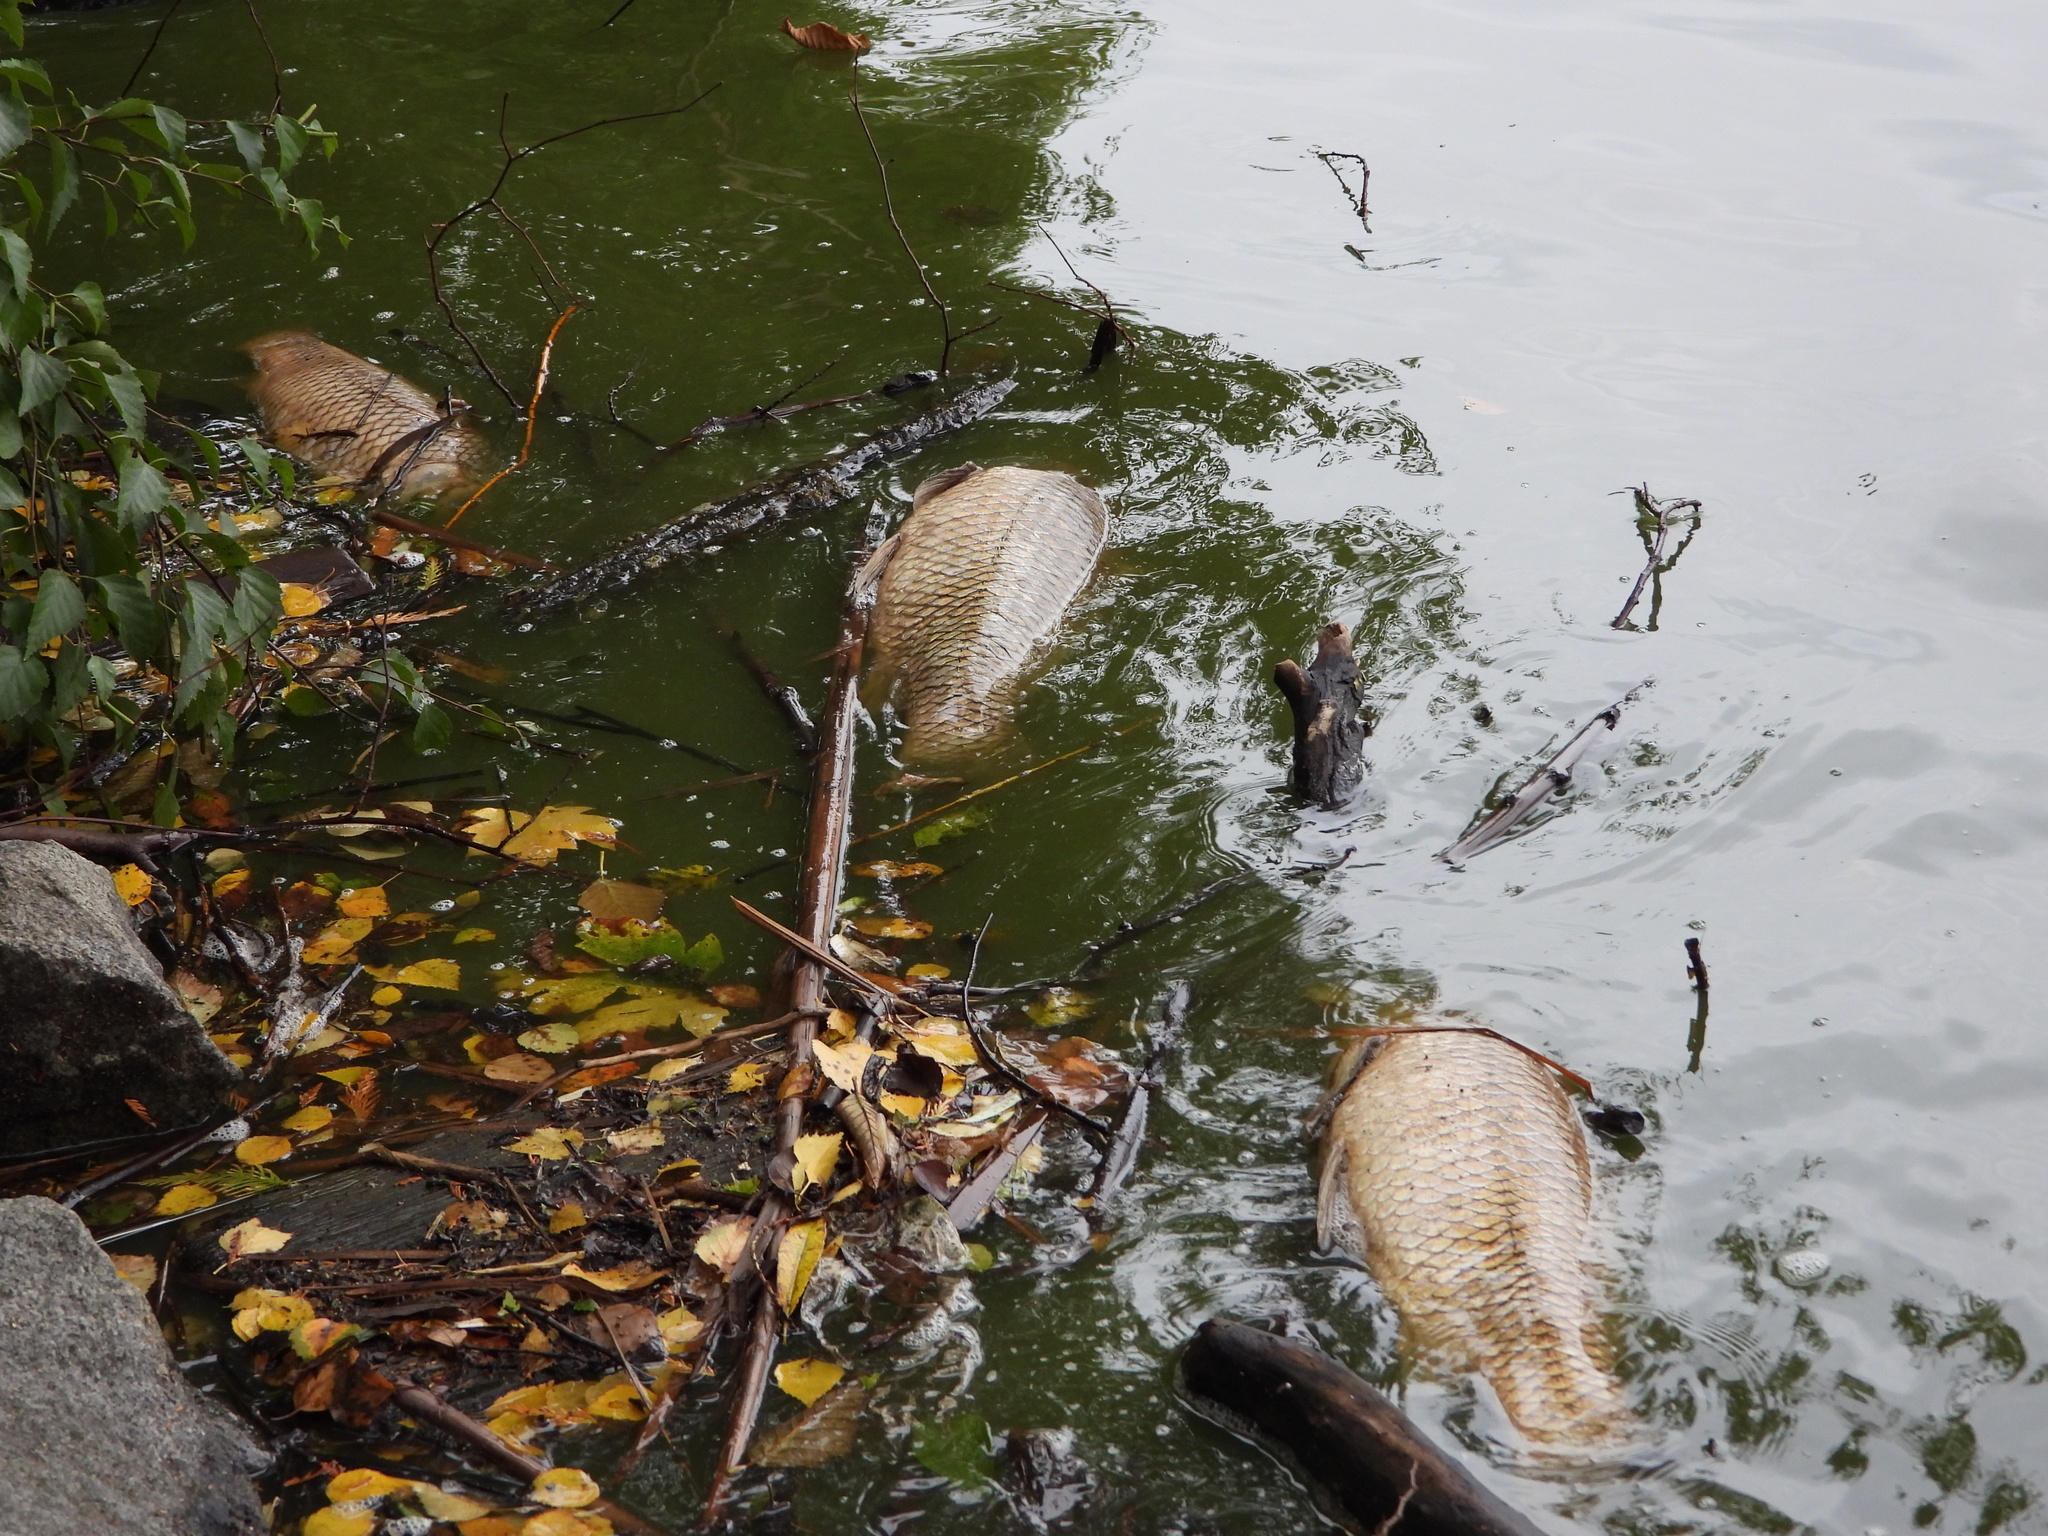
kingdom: Animalia
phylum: Chordata
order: Cypriniformes
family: Cyprinidae
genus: Cyprinus
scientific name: Cyprinus carpio
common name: Common carp
